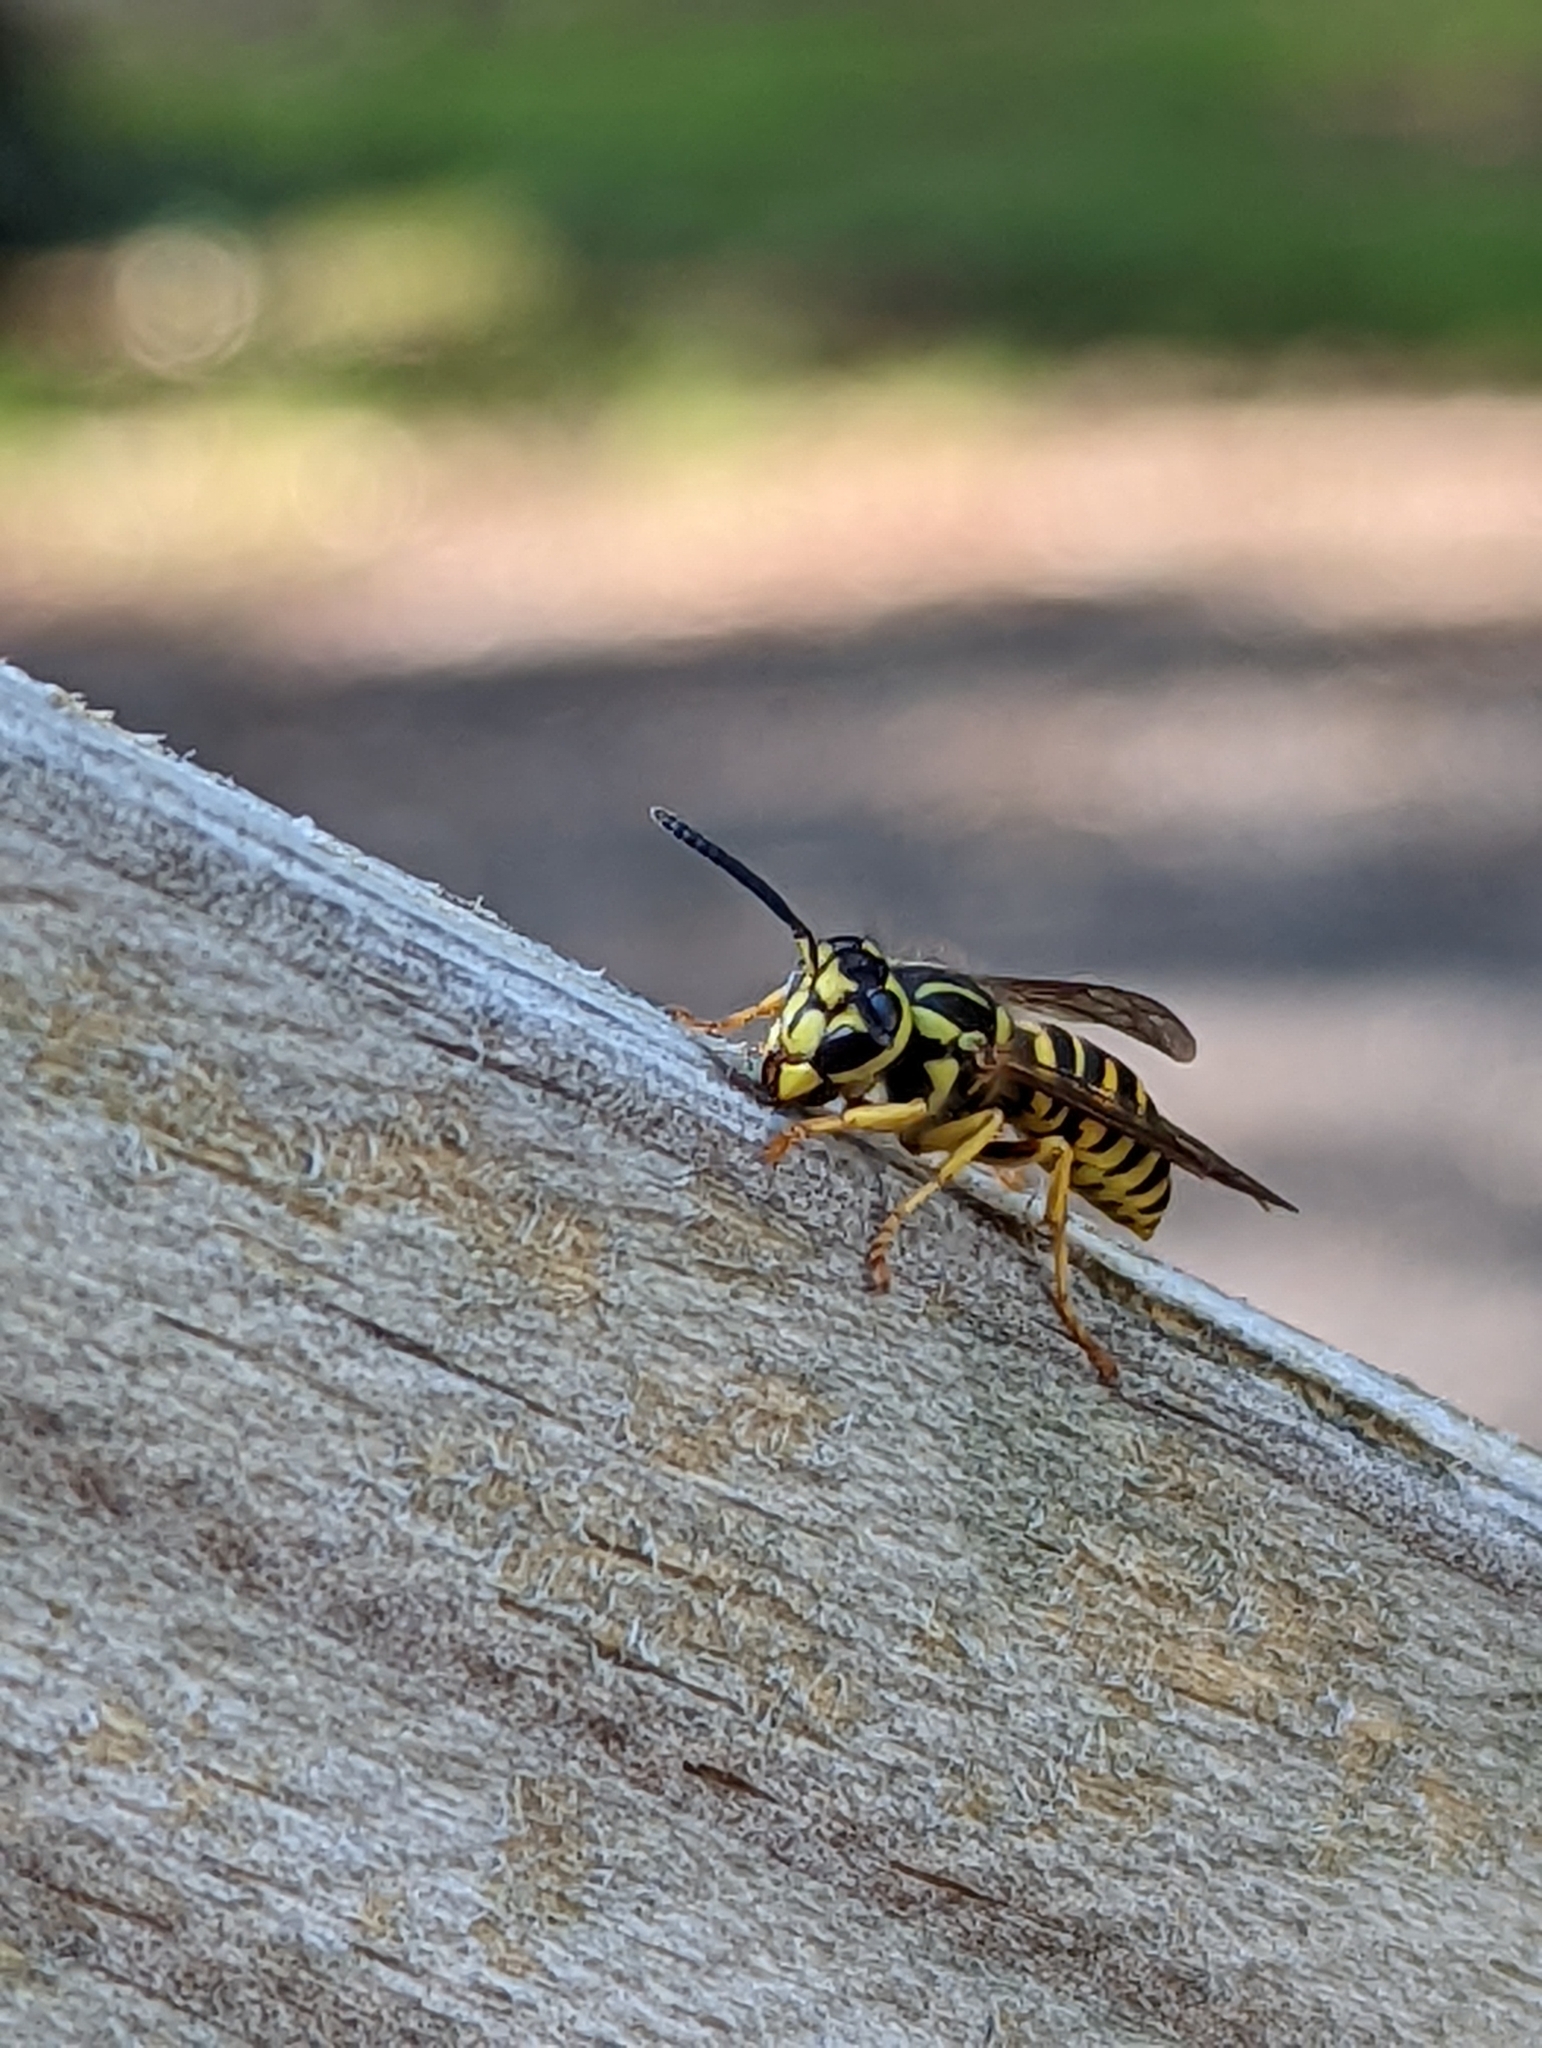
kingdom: Animalia
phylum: Arthropoda
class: Insecta
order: Hymenoptera
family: Vespidae
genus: Vespula
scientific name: Vespula squamosa
